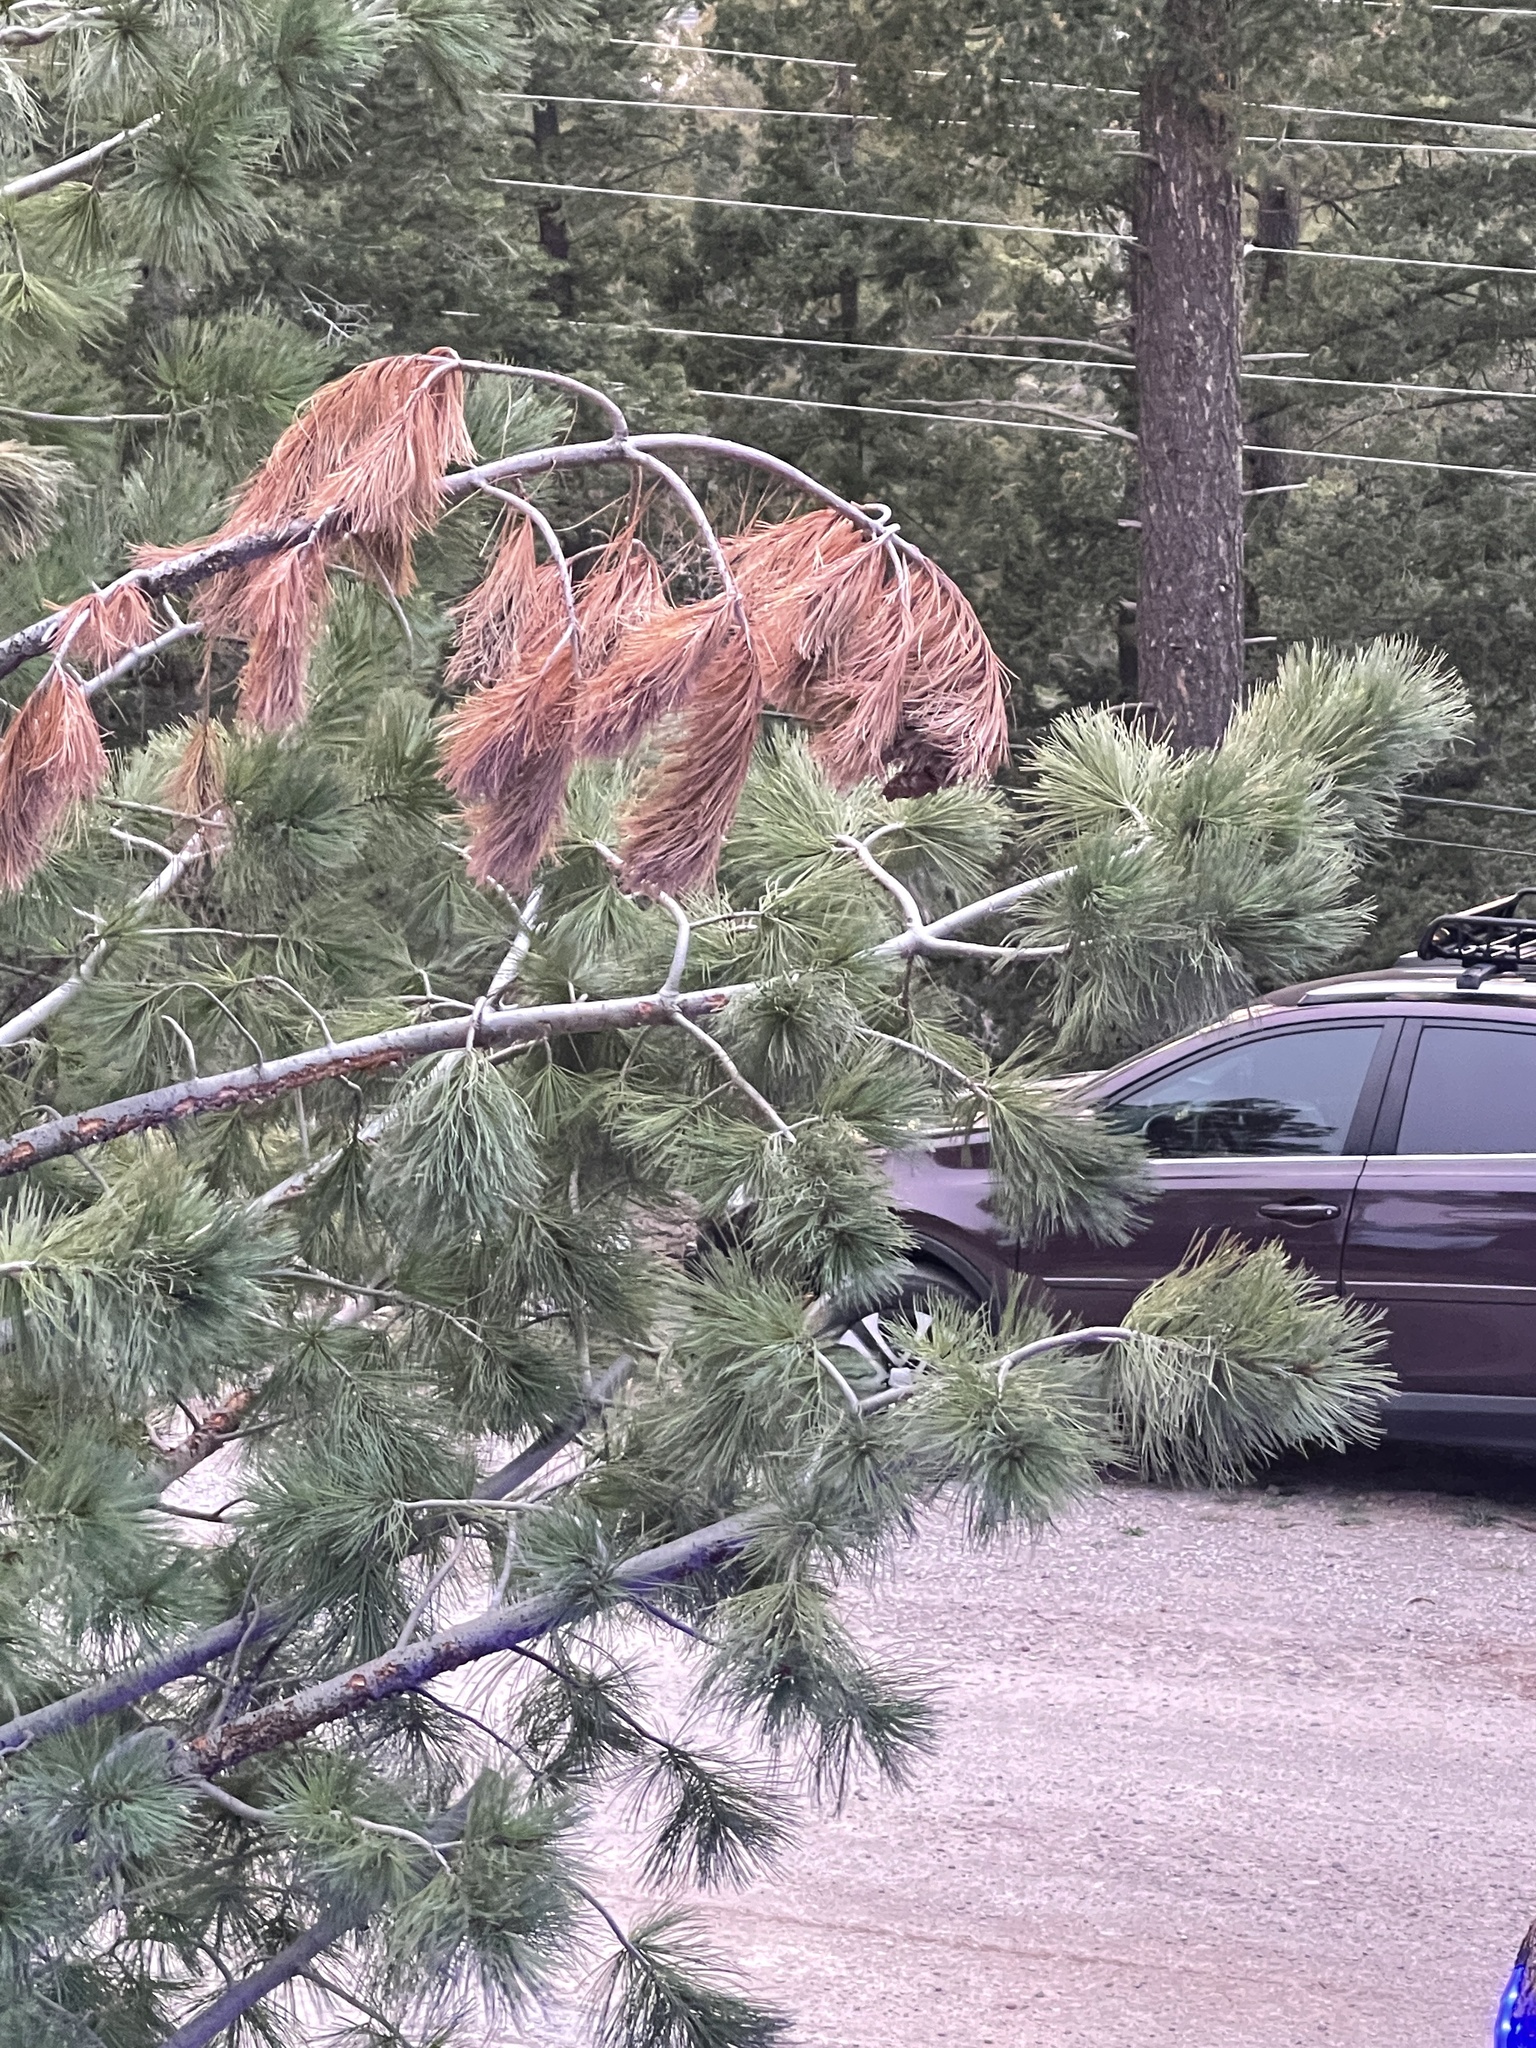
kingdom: Plantae
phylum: Tracheophyta
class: Pinopsida
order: Pinales
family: Pinaceae
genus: Pinus
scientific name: Pinus strobiformis
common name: Southwestern white pine
